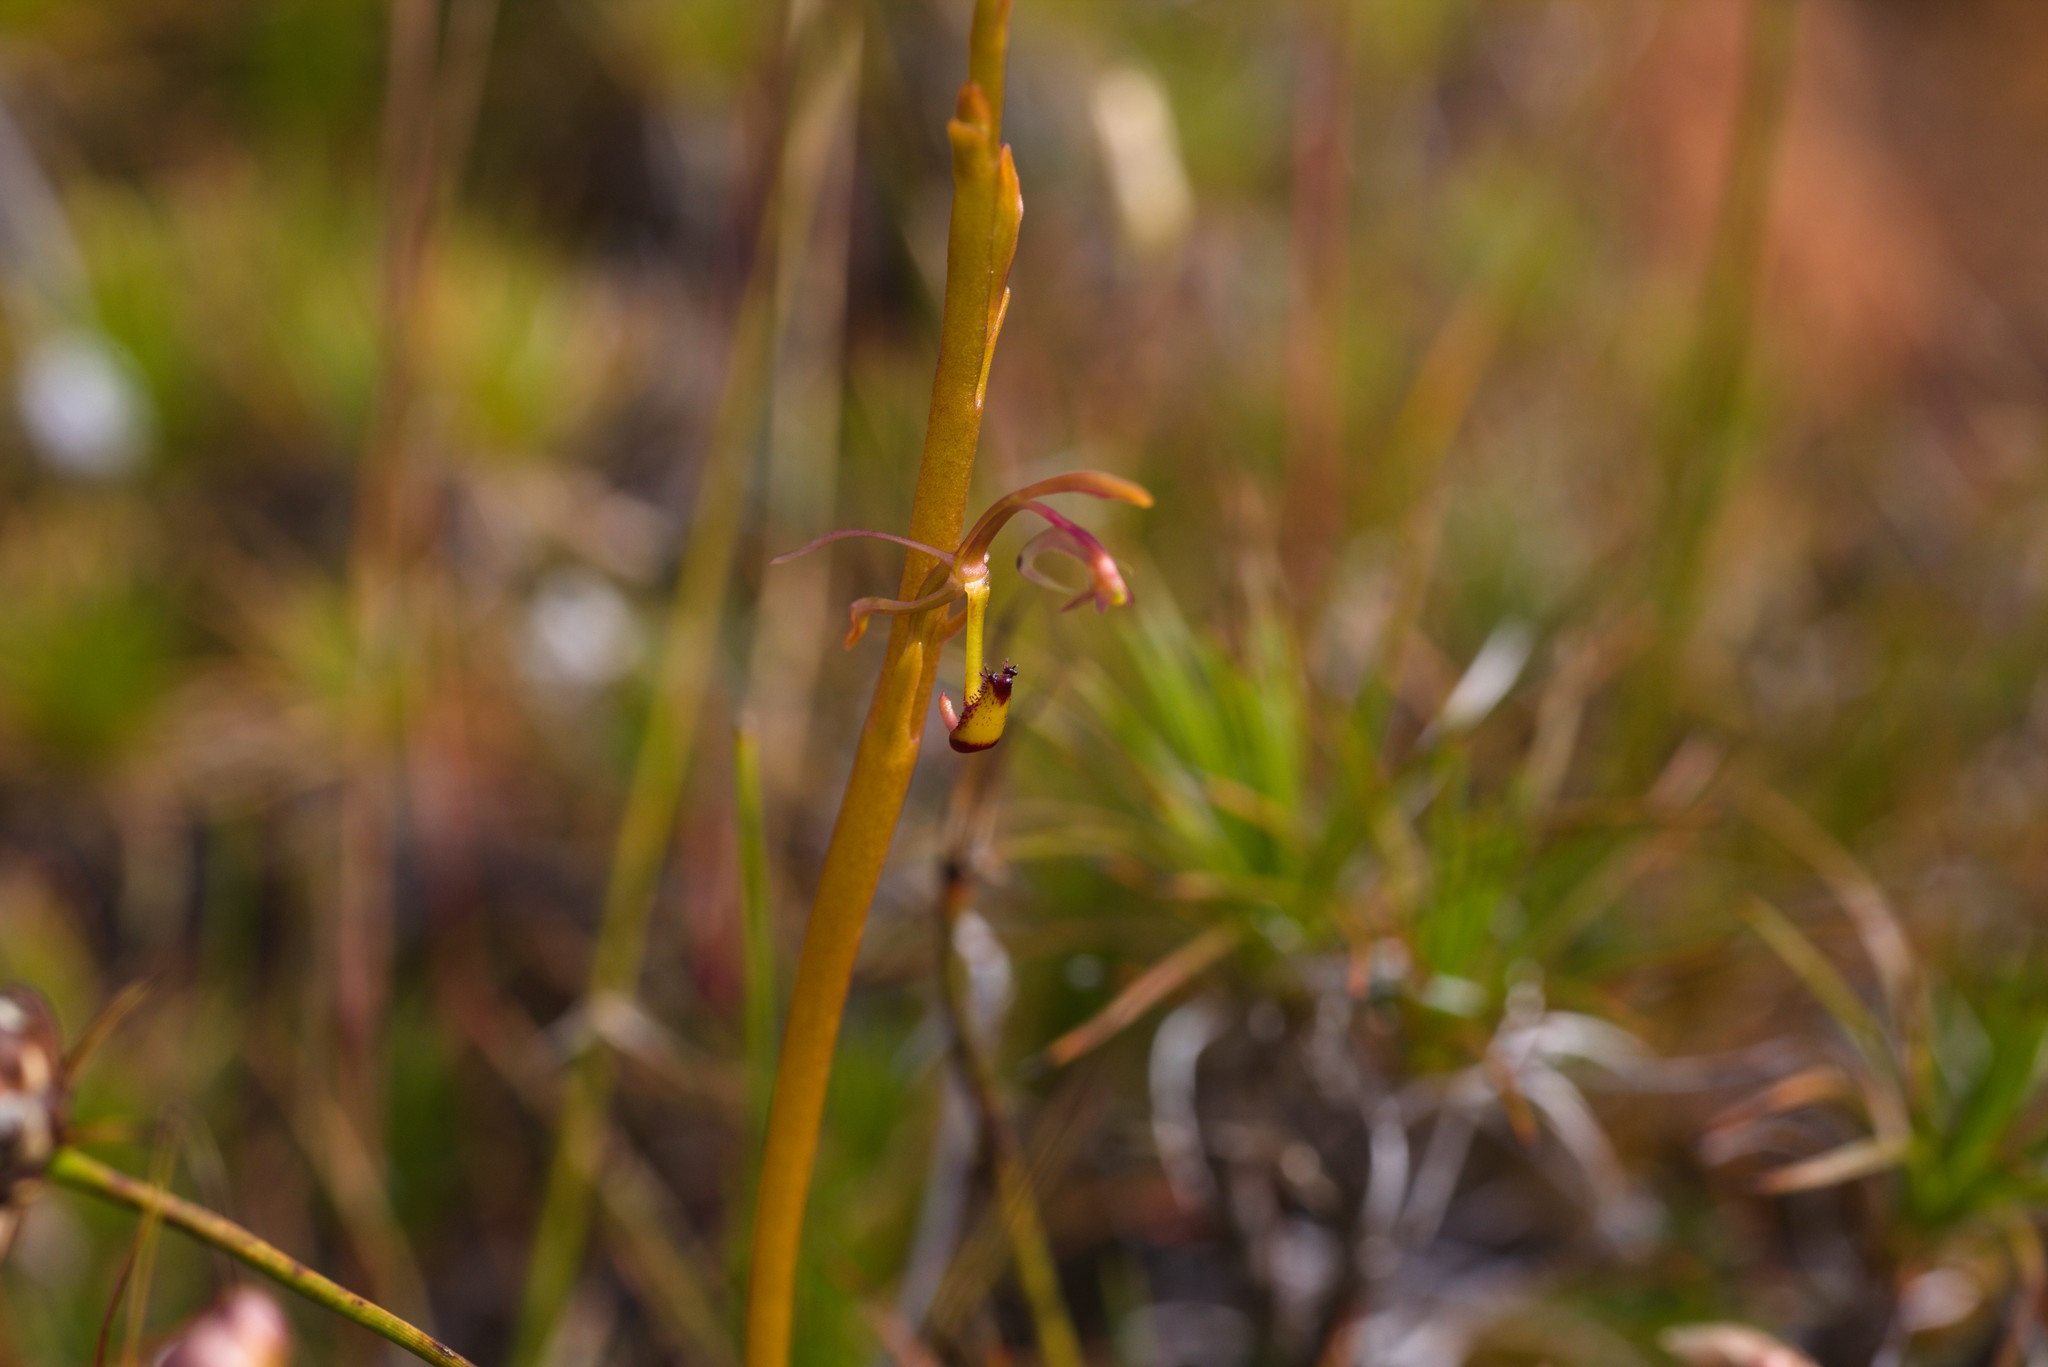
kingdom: Plantae
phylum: Tracheophyta
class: Liliopsida
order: Asparagales
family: Orchidaceae
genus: Spiculaea
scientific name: Spiculaea ciliata
